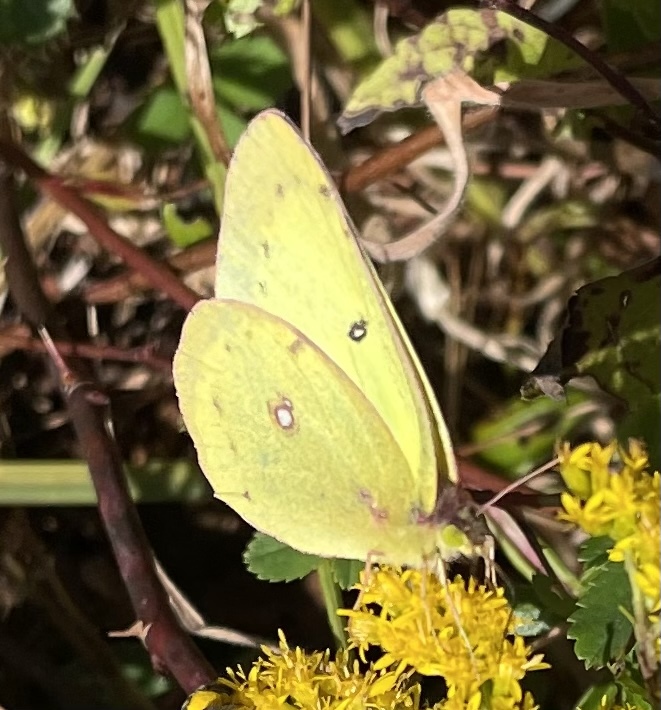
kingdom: Animalia
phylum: Arthropoda
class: Insecta
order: Lepidoptera
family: Pieridae
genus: Colias
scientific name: Colias philodice
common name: Clouded sulphur
